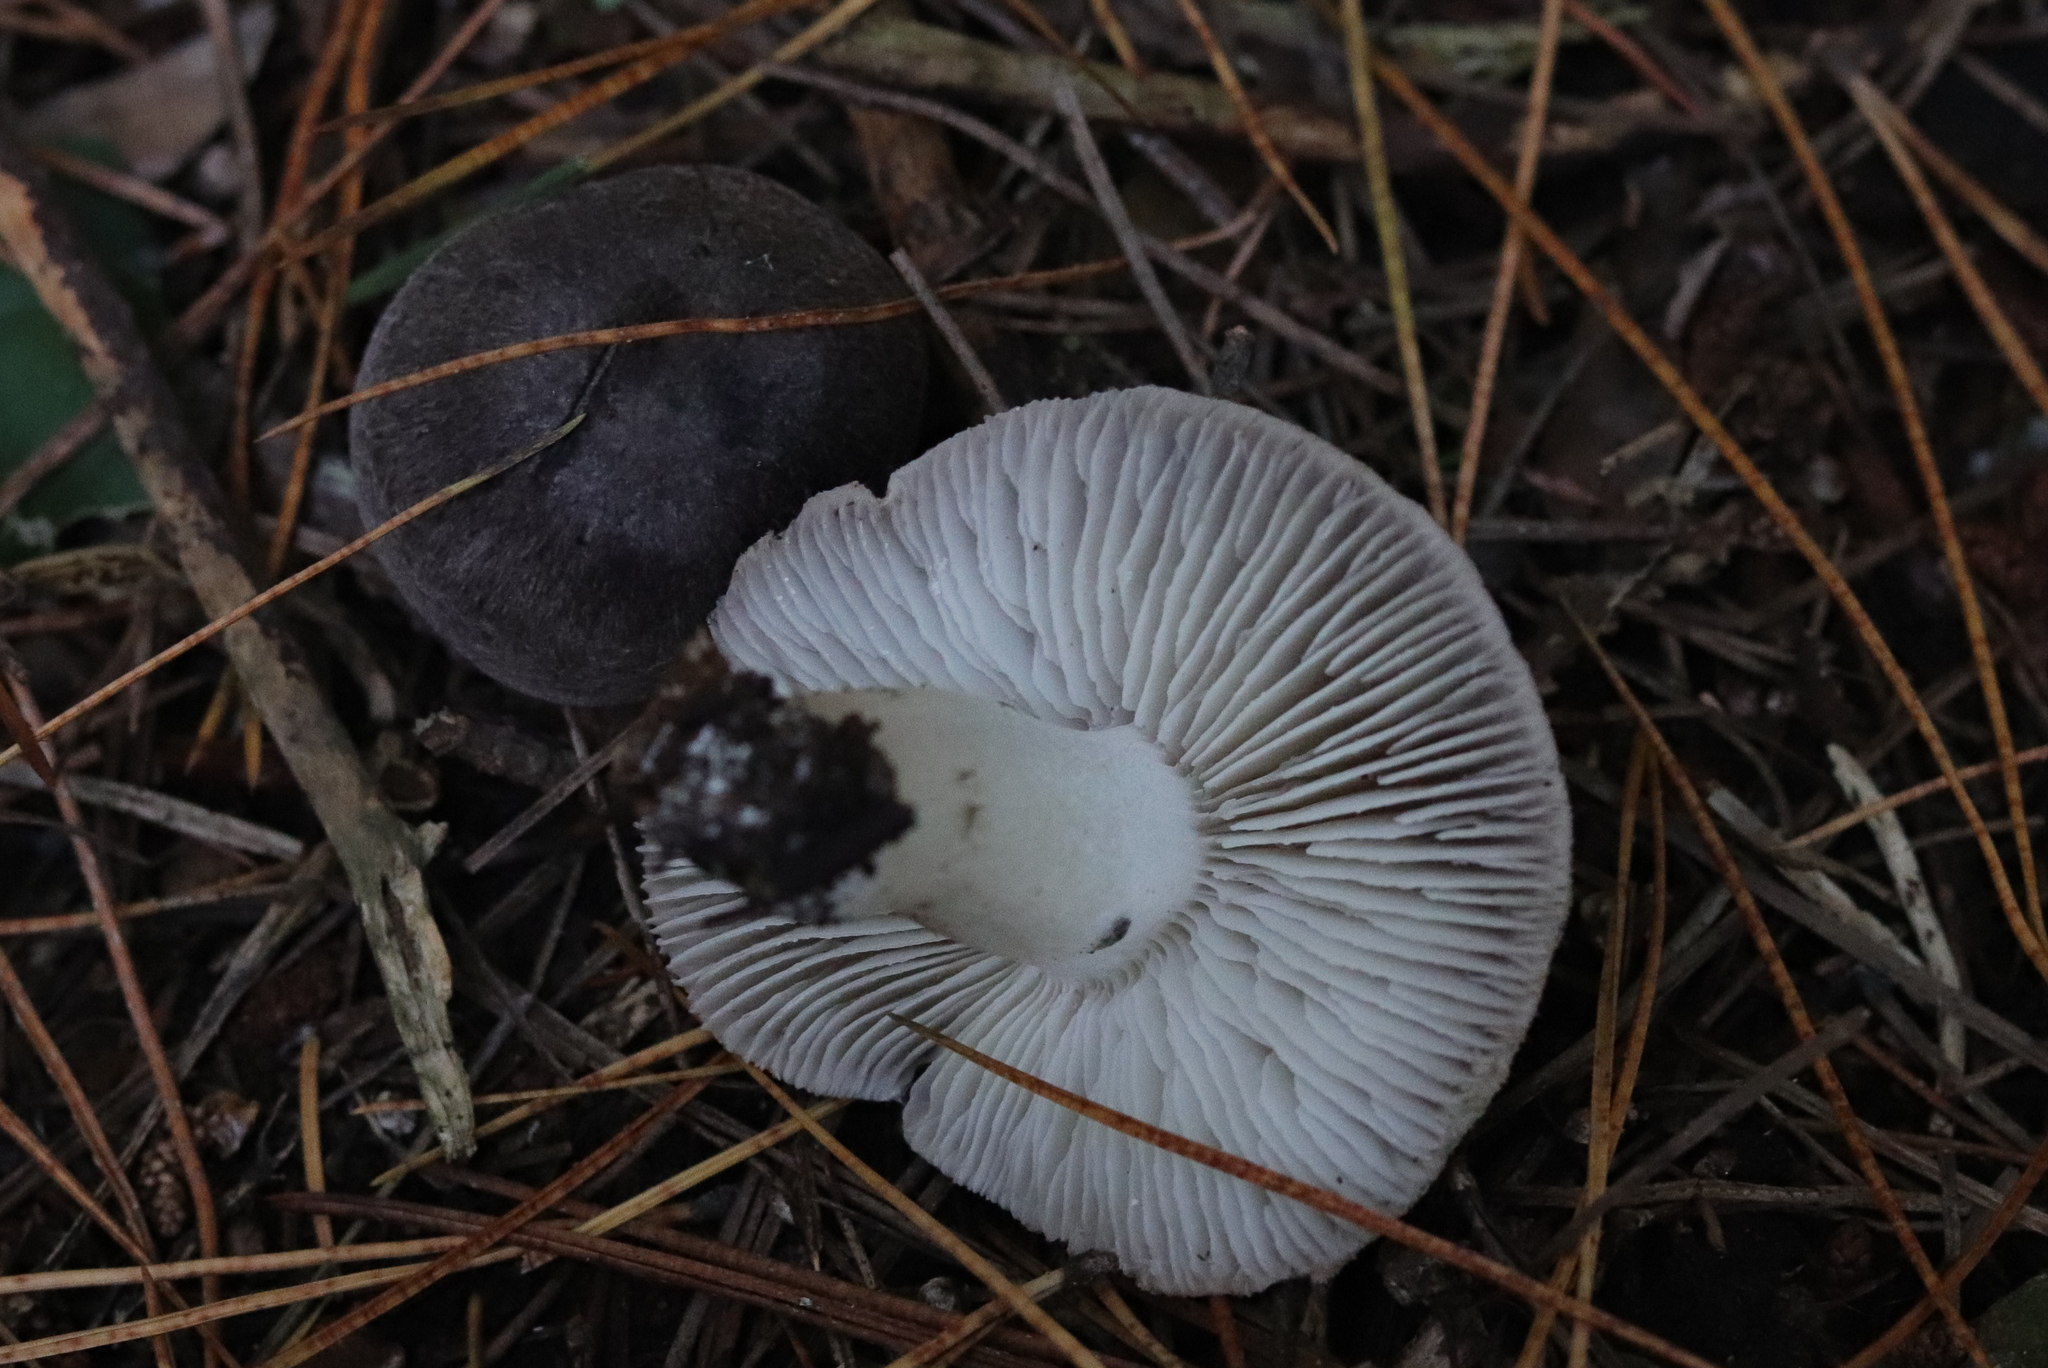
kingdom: Fungi
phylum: Basidiomycota
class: Agaricomycetes
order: Agaricales
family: Tricholomataceae
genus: Tricholoma
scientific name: Tricholoma terreum
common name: Grey knight
